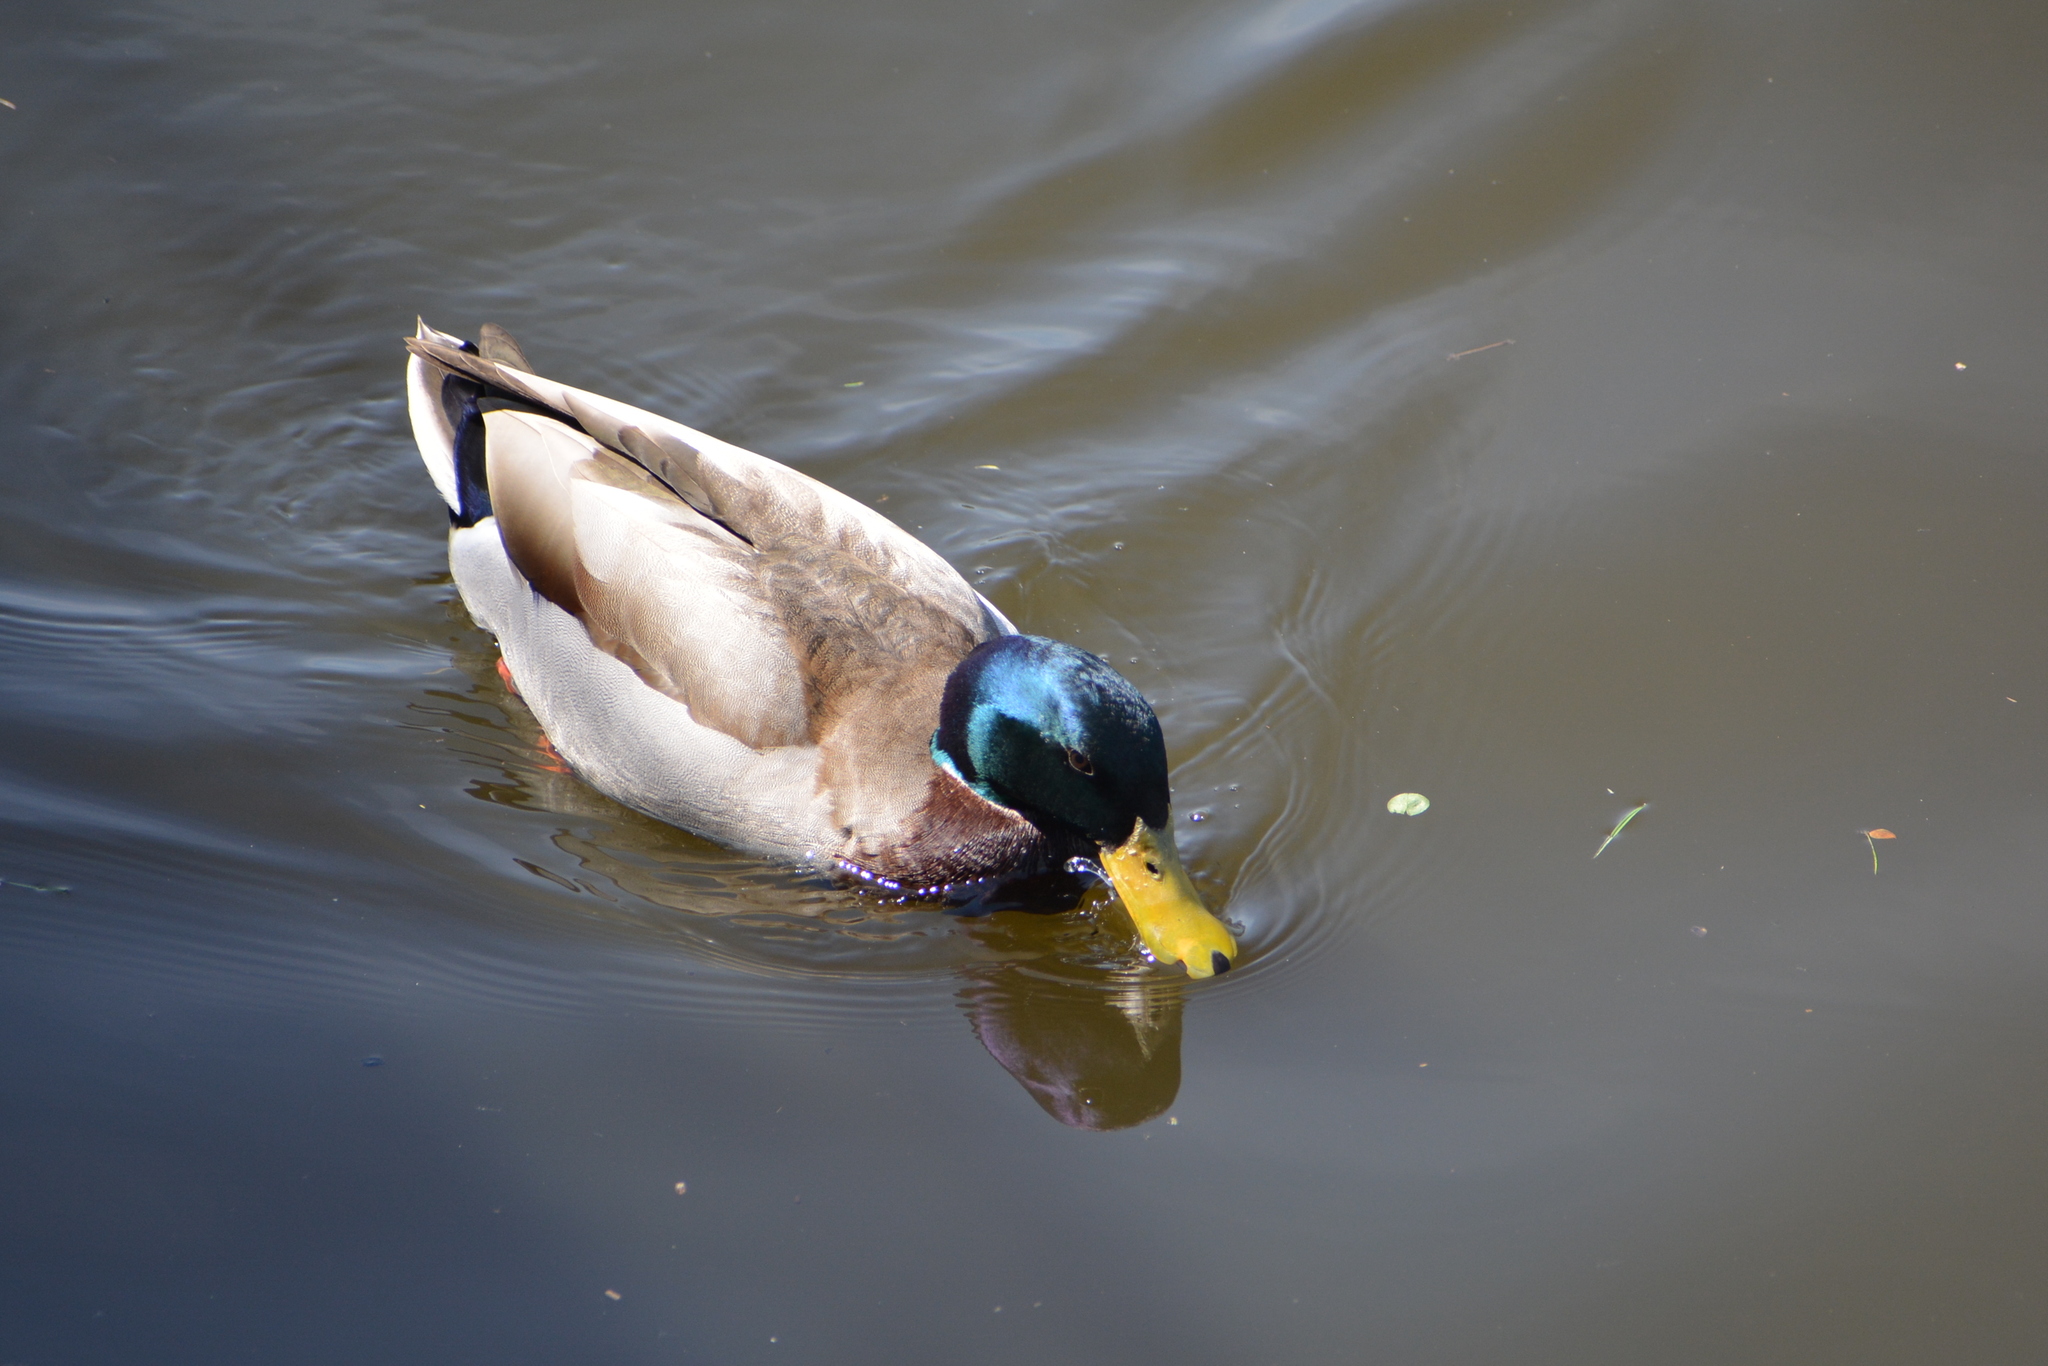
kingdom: Animalia
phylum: Chordata
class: Aves
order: Anseriformes
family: Anatidae
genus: Anas
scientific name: Anas platyrhynchos
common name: Mallard
